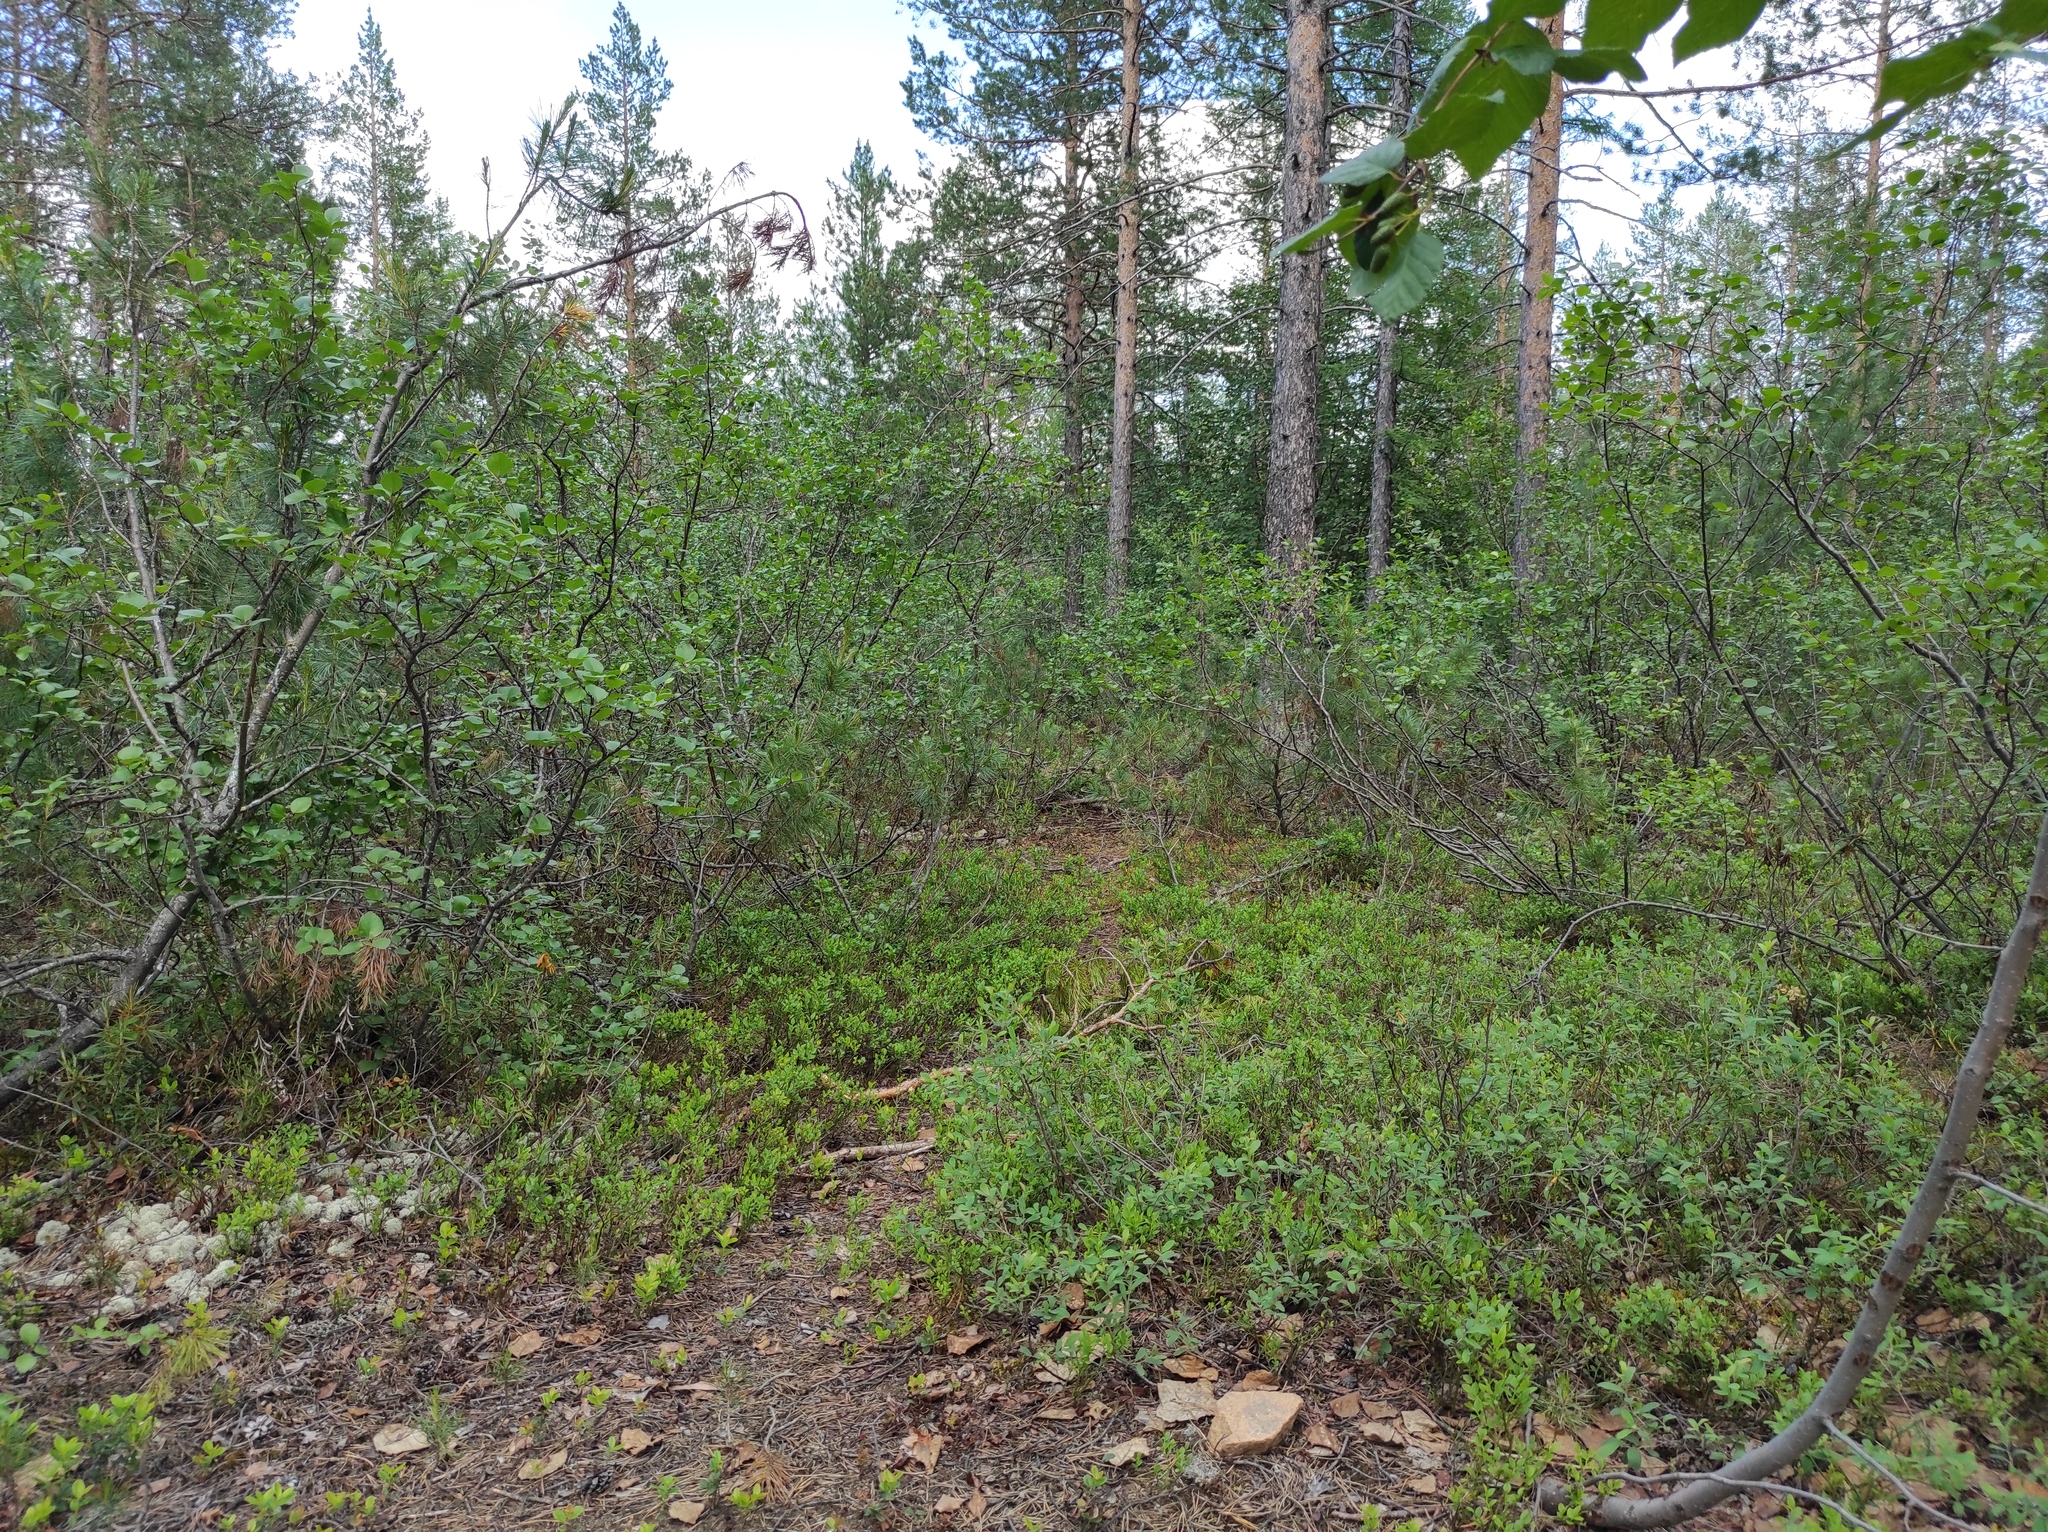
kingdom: Plantae
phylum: Tracheophyta
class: Magnoliopsida
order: Fagales
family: Betulaceae
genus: Alnus
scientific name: Alnus alnobetula
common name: Green alder
